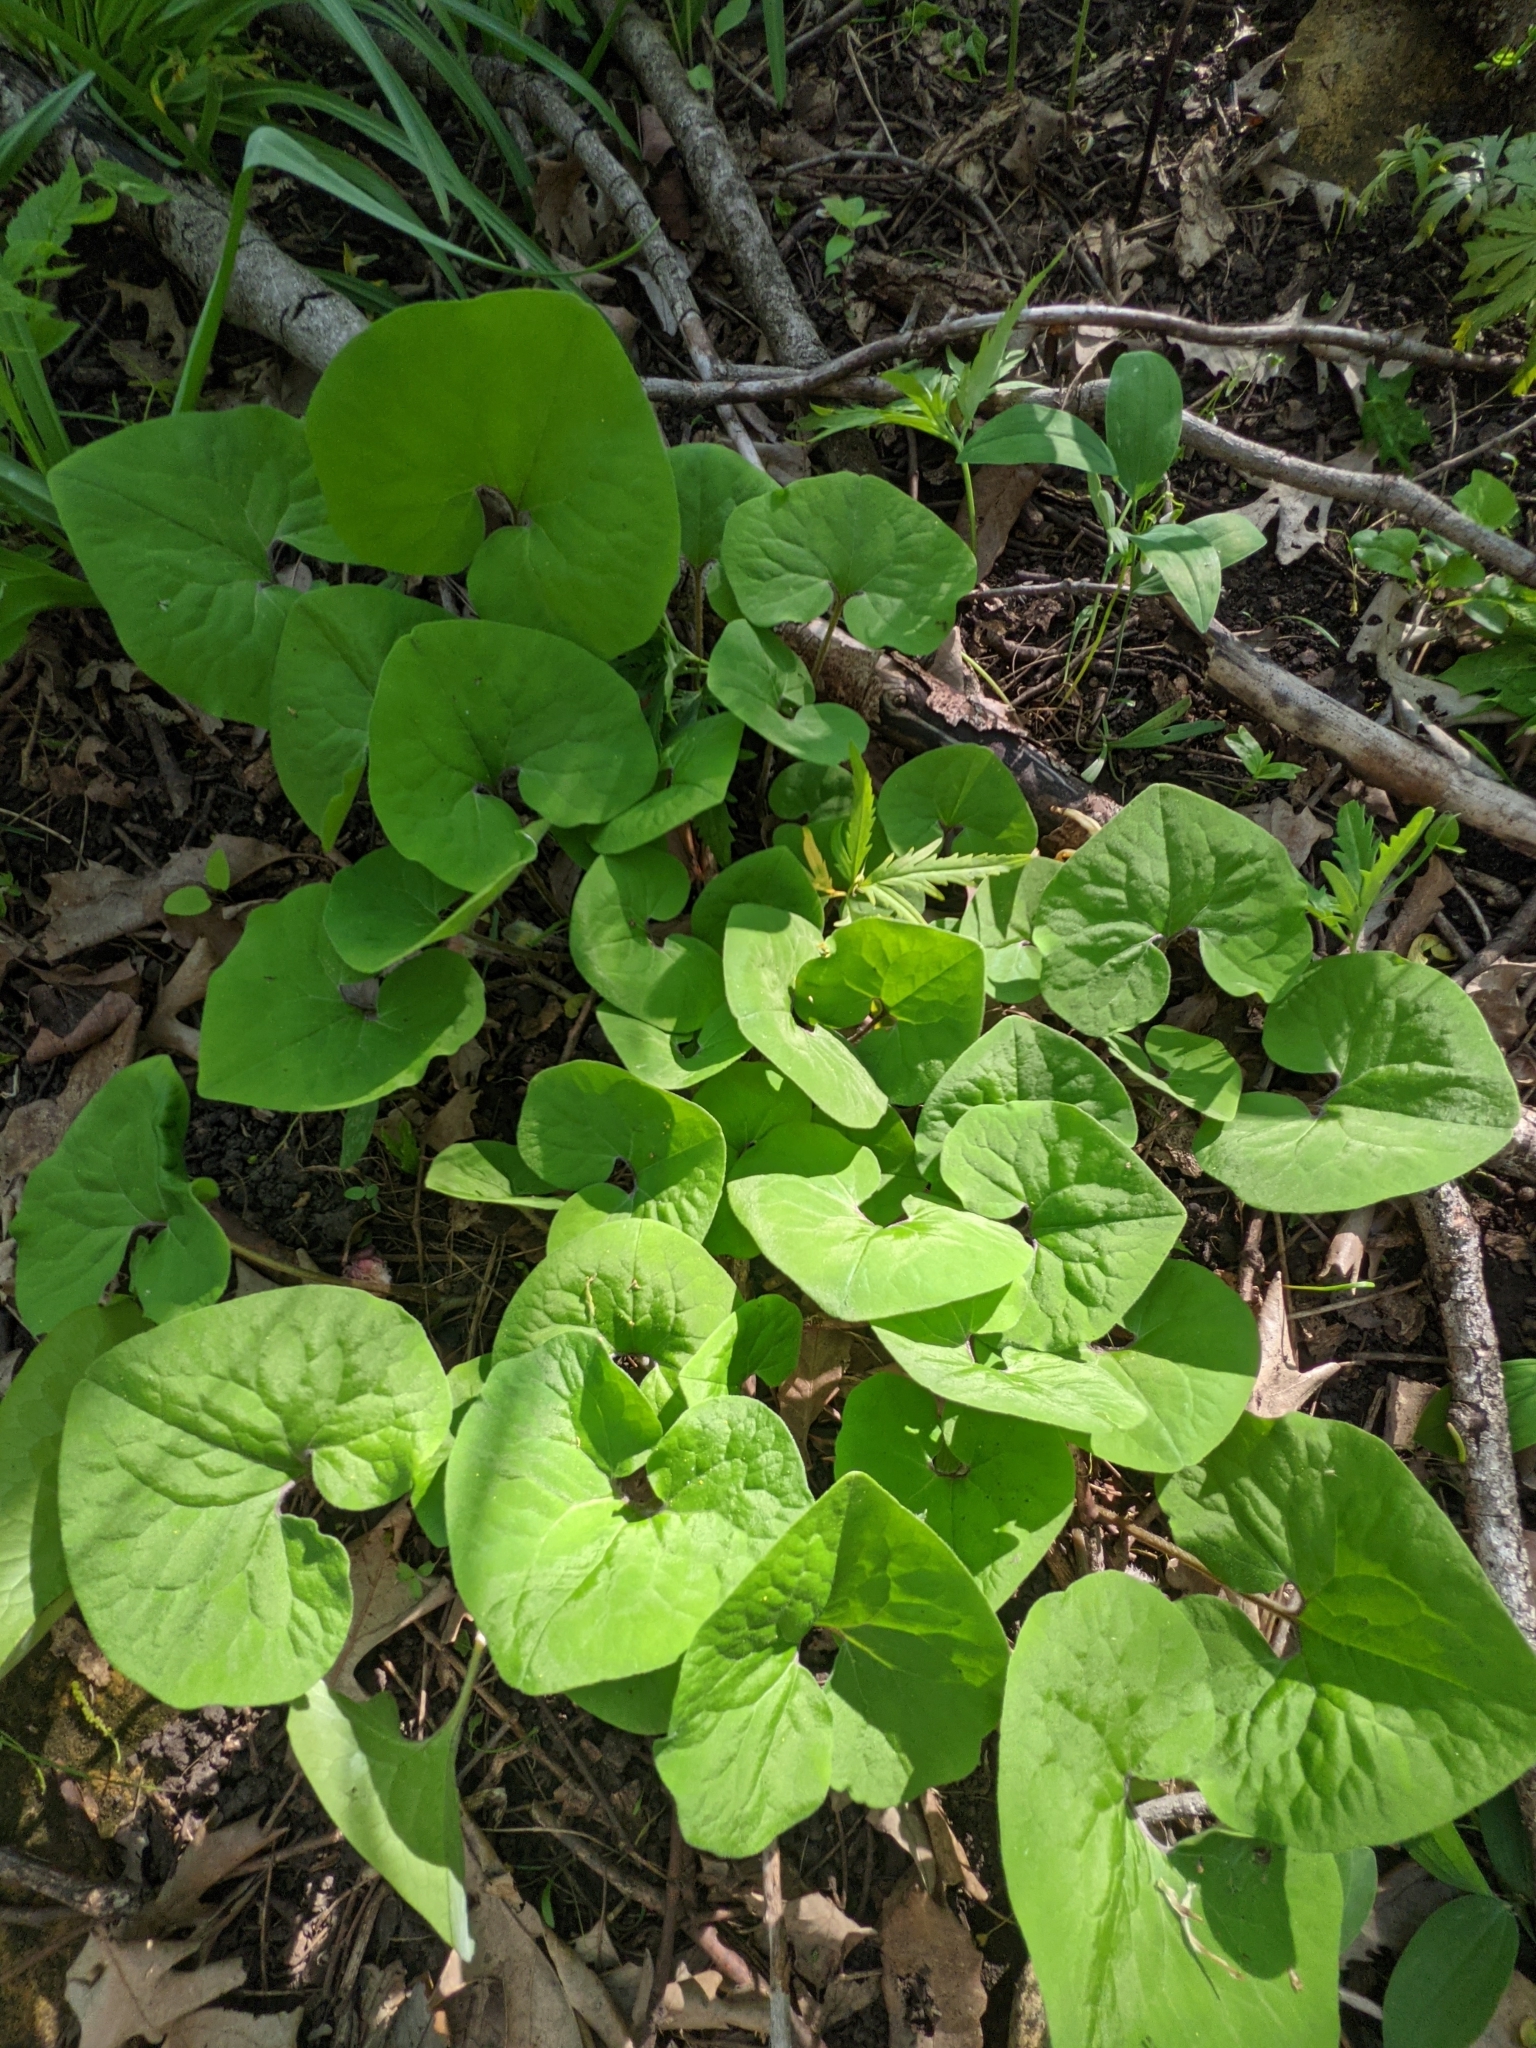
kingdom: Plantae
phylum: Tracheophyta
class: Magnoliopsida
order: Piperales
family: Aristolochiaceae
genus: Asarum
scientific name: Asarum canadense
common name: Wild ginger
